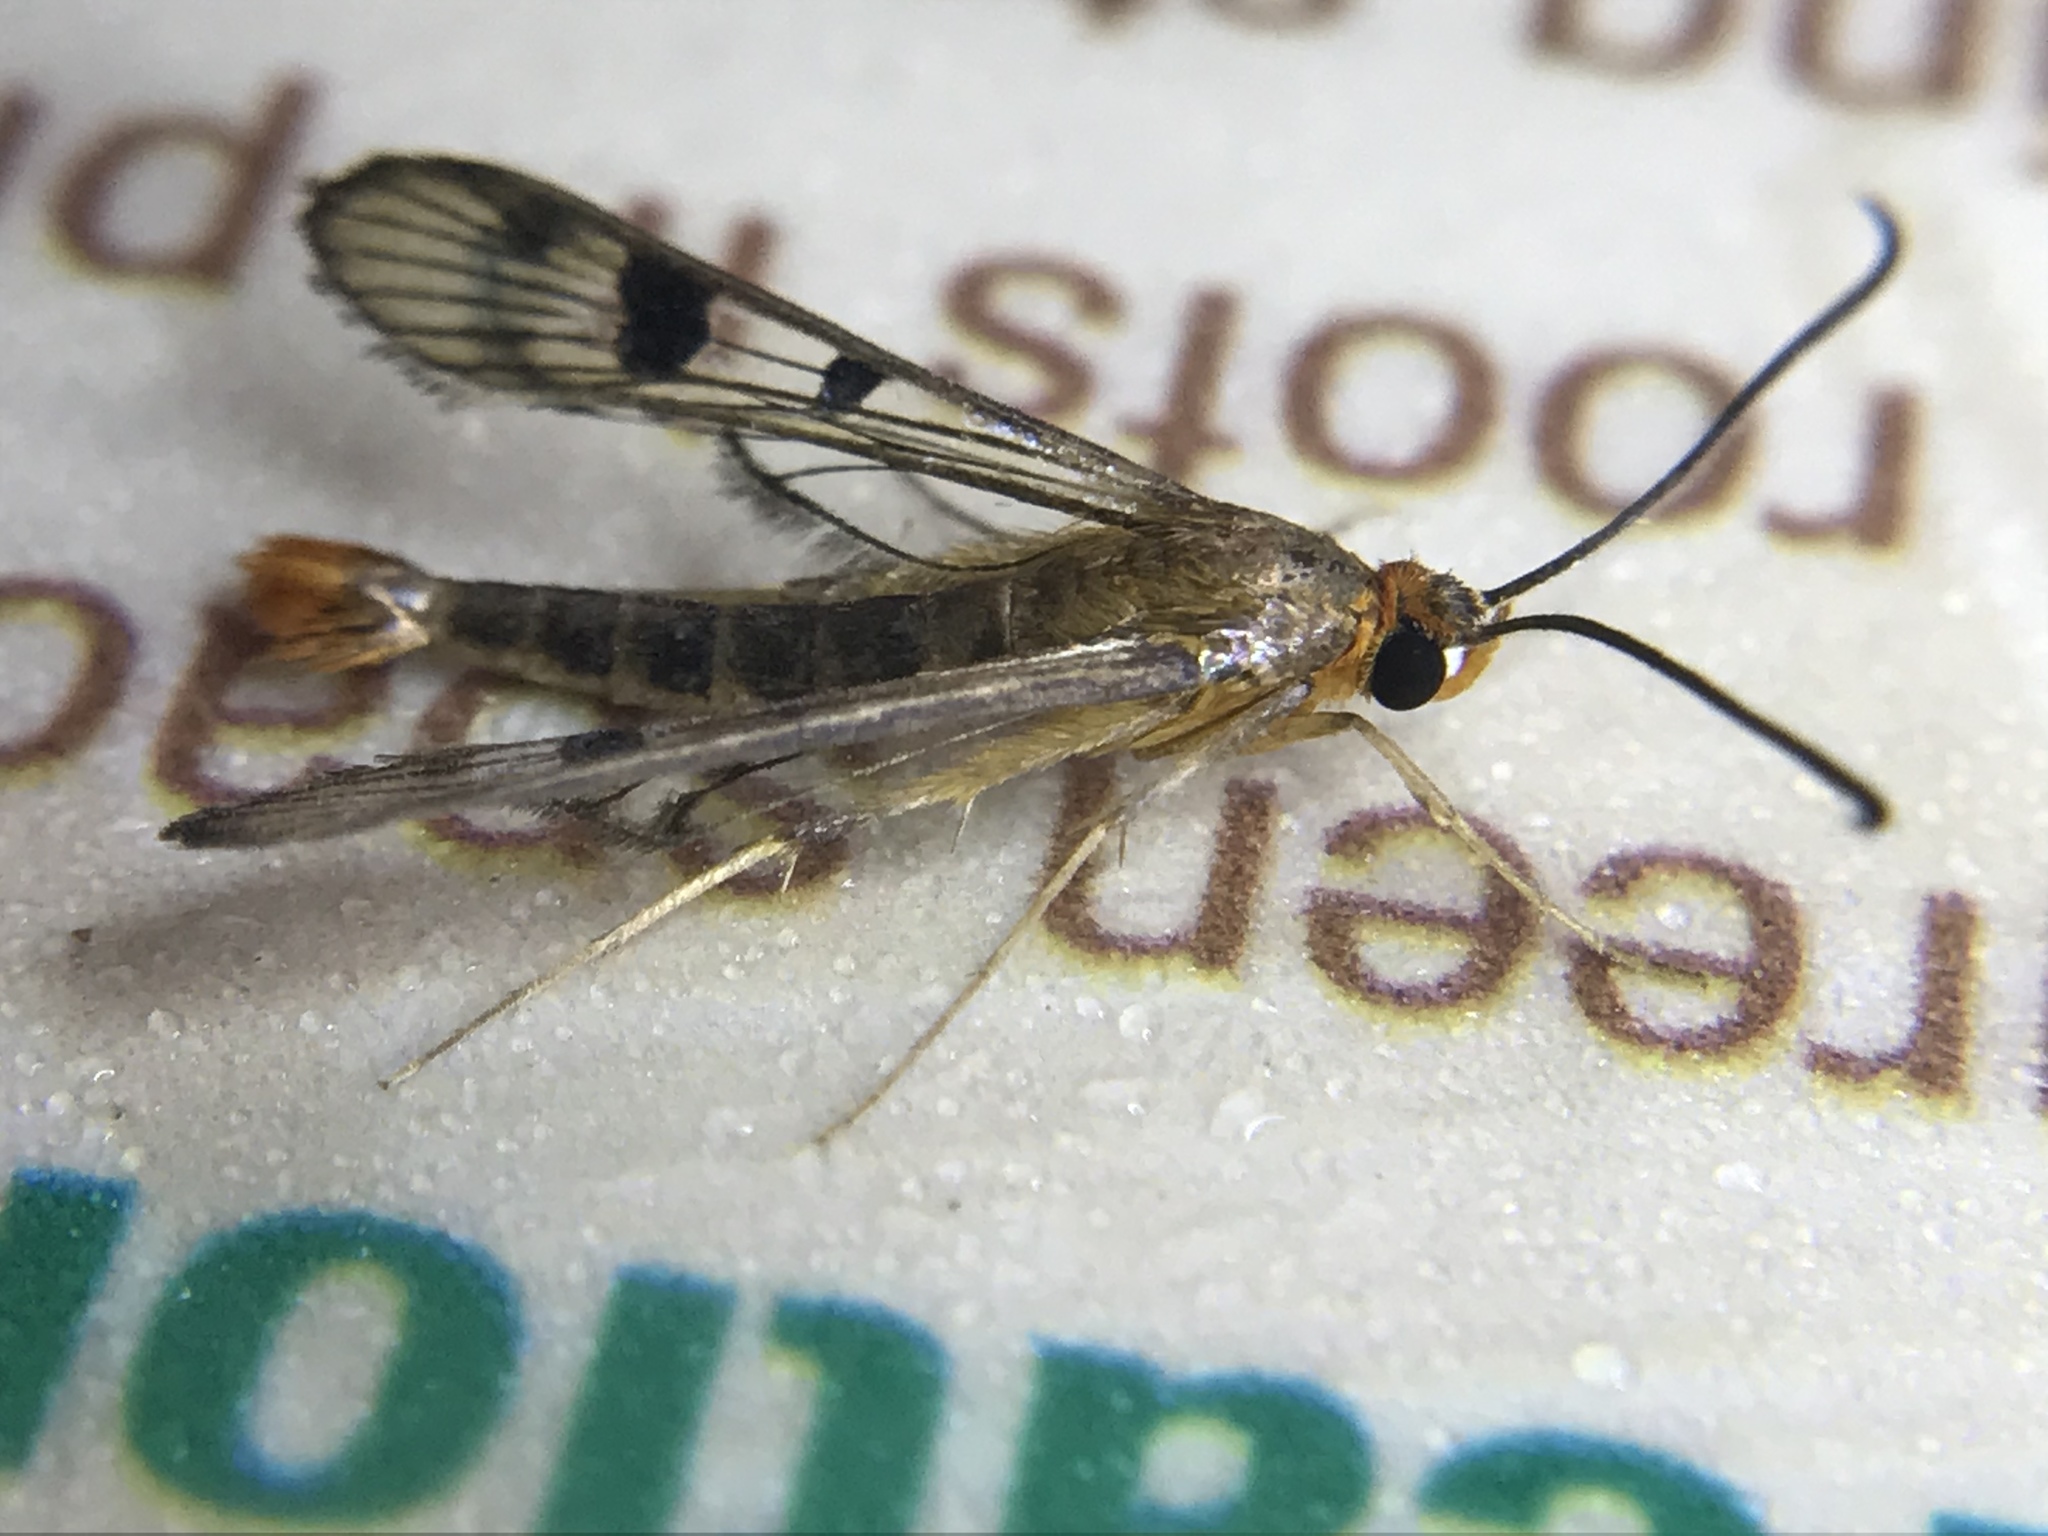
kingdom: Animalia
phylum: Arthropoda
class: Insecta
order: Lepidoptera
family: Sesiidae
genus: Synanthedon
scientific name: Synanthedon acerni
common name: Maple callus borer moth
